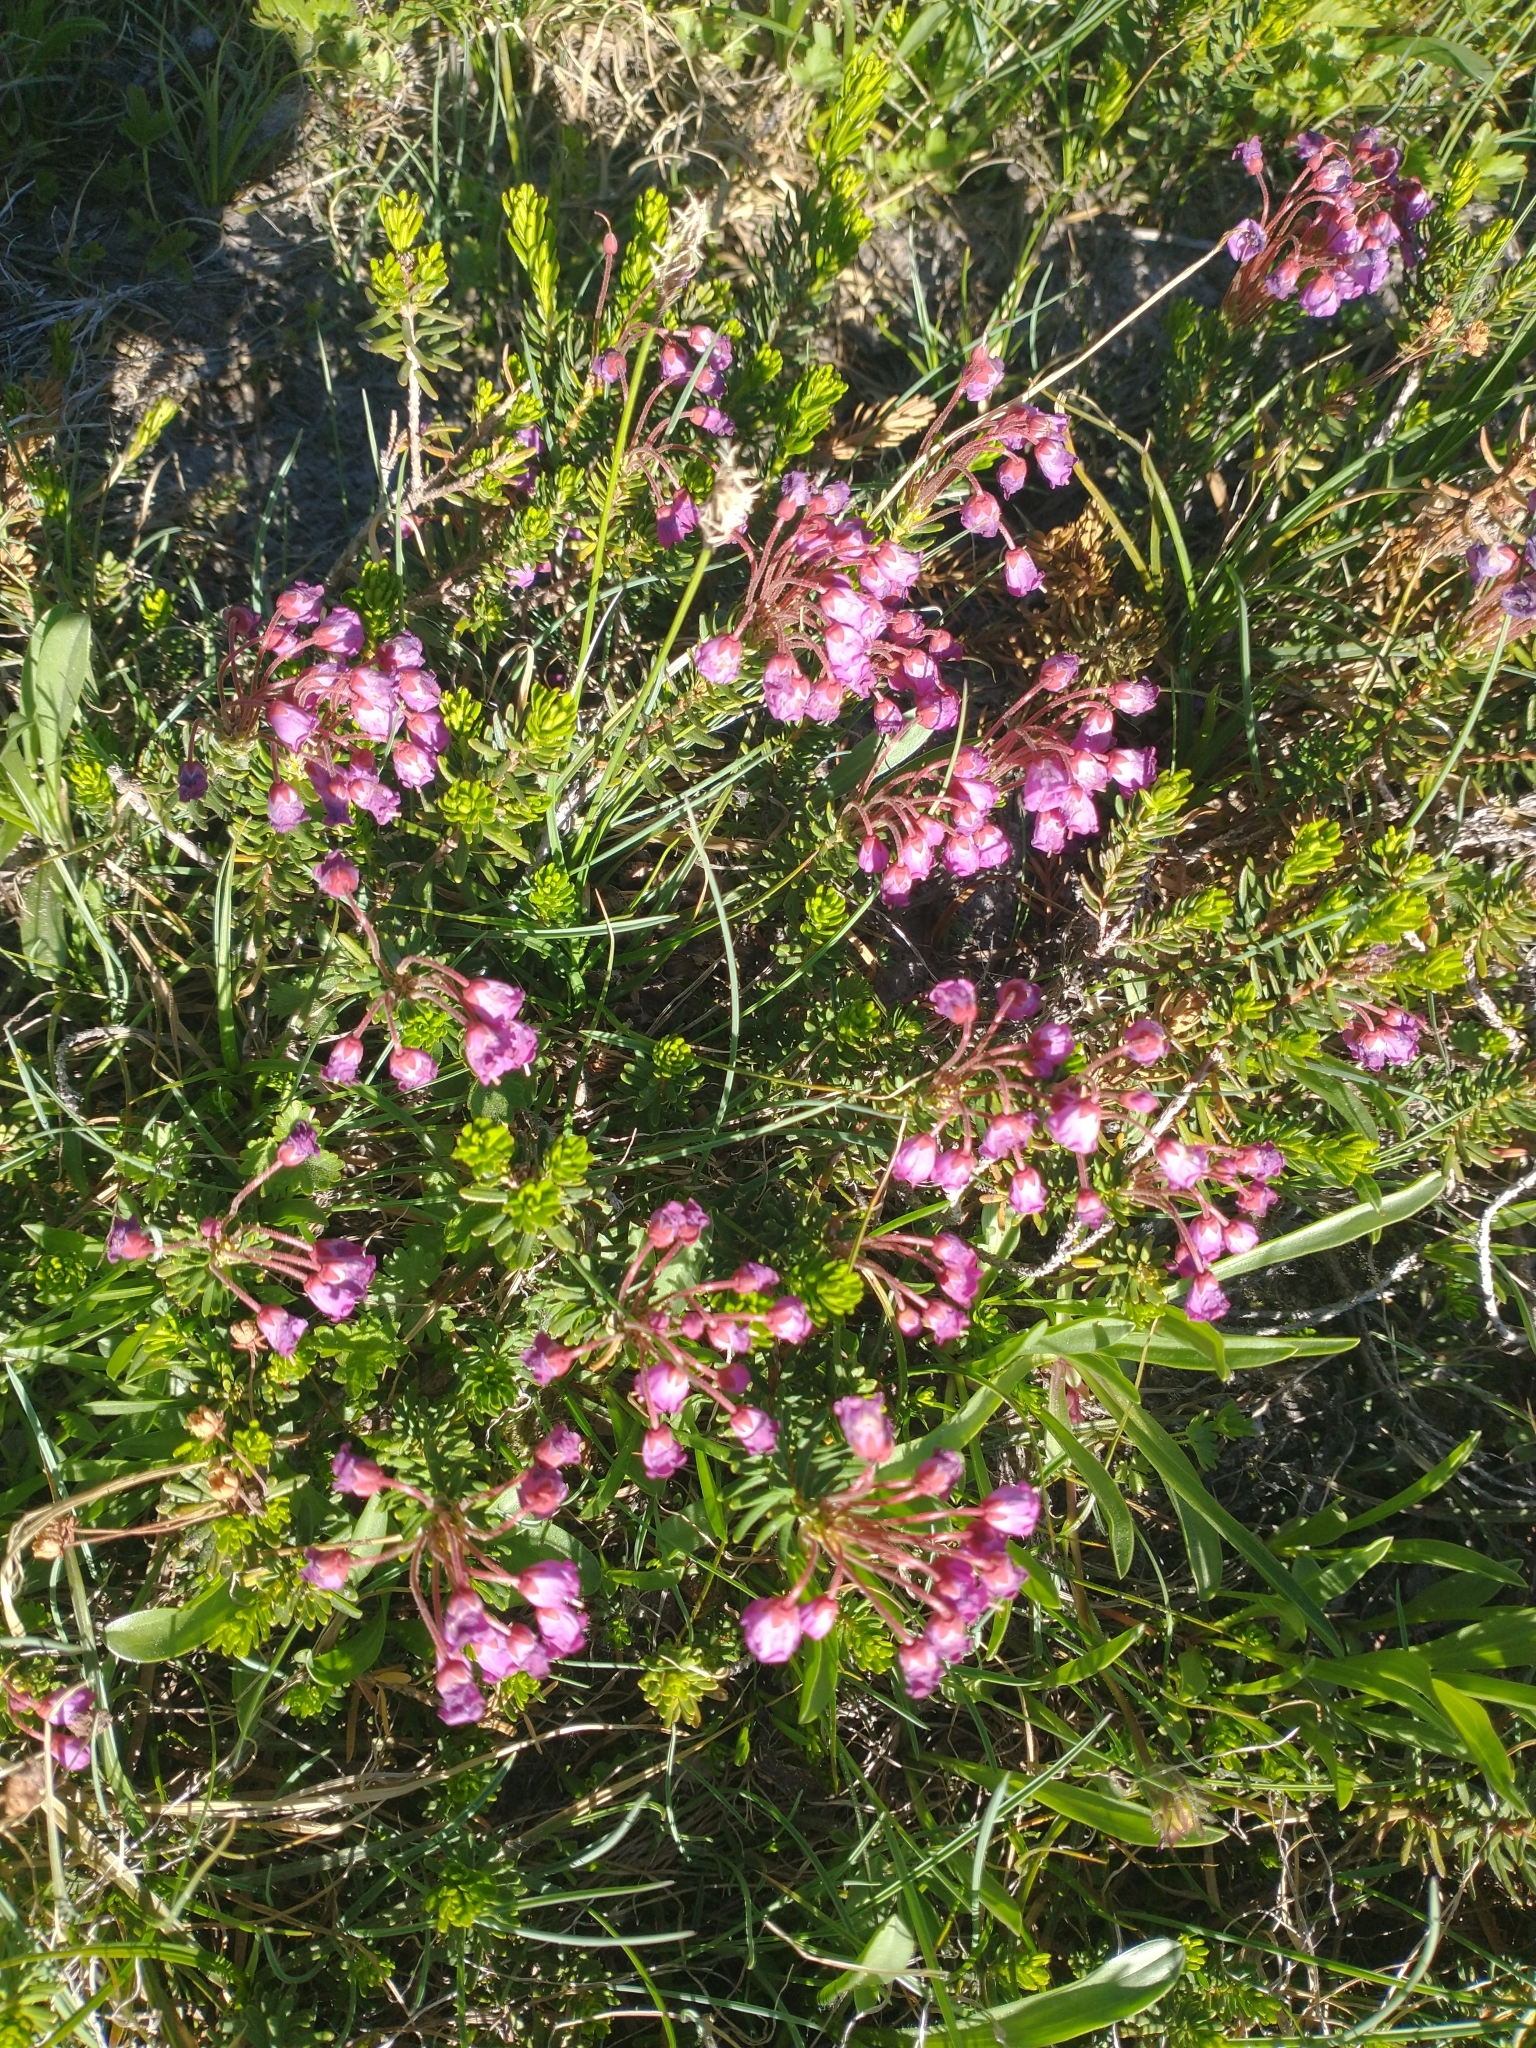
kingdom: Plantae
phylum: Tracheophyta
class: Magnoliopsida
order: Ericales
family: Ericaceae
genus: Phyllodoce
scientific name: Phyllodoce empetriformis
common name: Pink mountain heather
